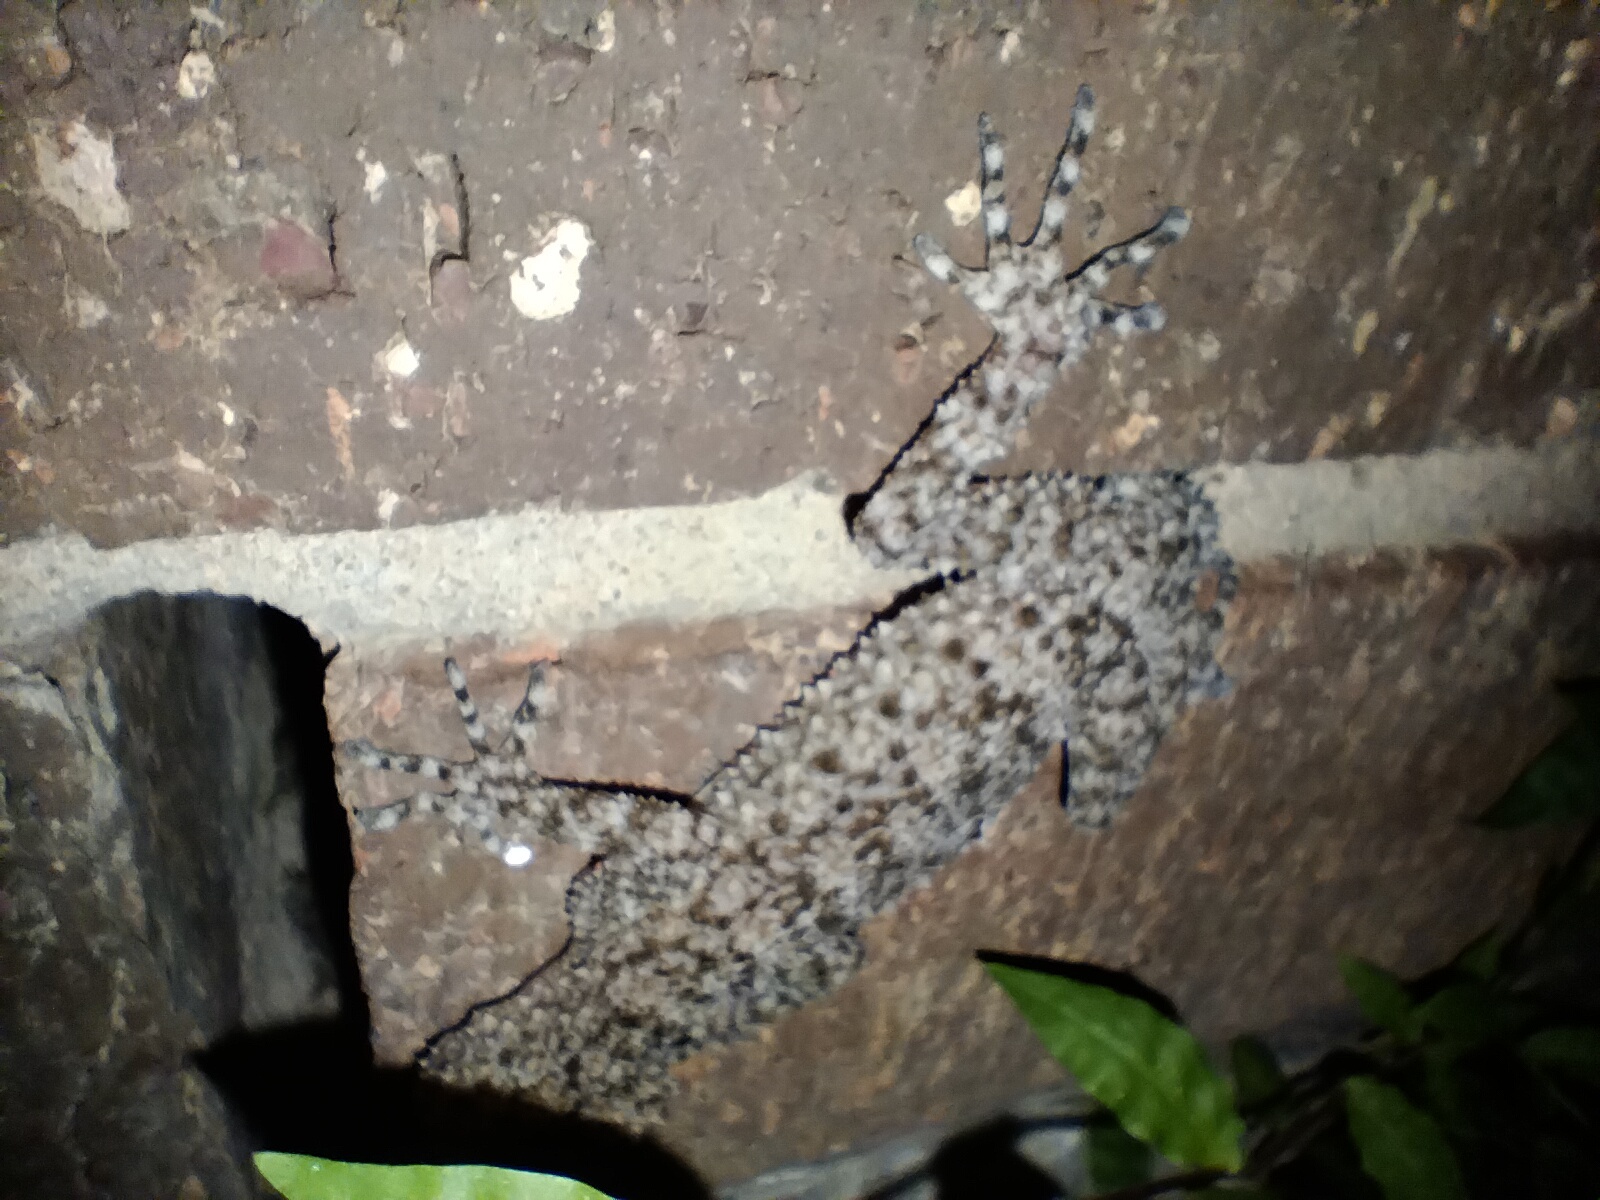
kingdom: Animalia
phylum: Chordata
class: Squamata
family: Carphodactylidae
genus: Phyllurus
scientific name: Phyllurus platurus
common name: Broad-tailed gecko
